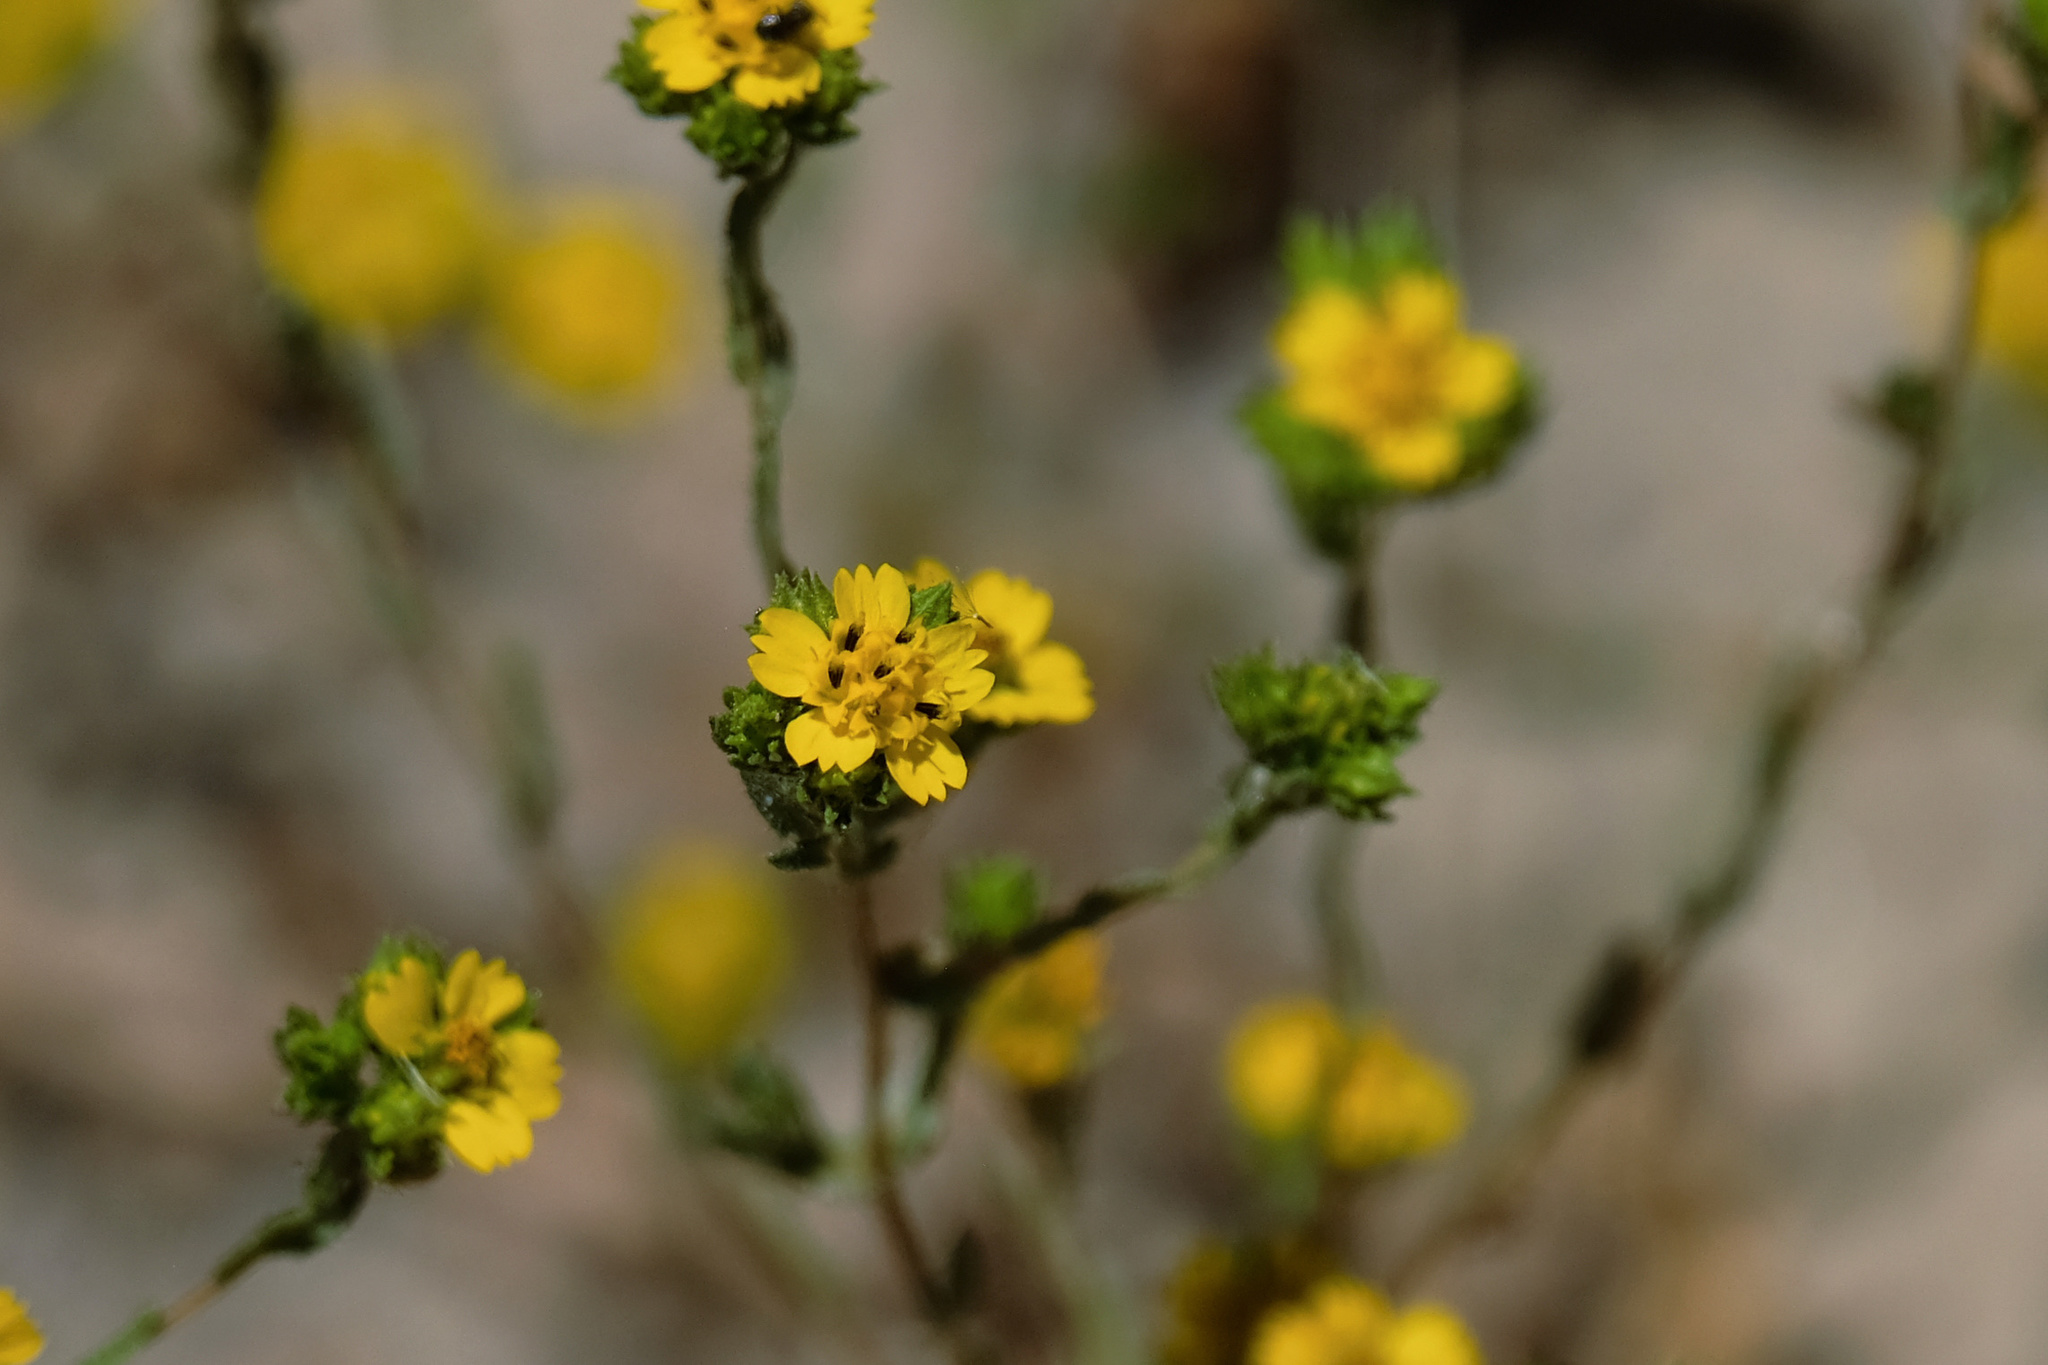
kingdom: Plantae
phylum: Tracheophyta
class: Magnoliopsida
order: Asterales
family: Asteraceae
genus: Deinandra
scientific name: Deinandra fasciculata
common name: Clustered tarweed
